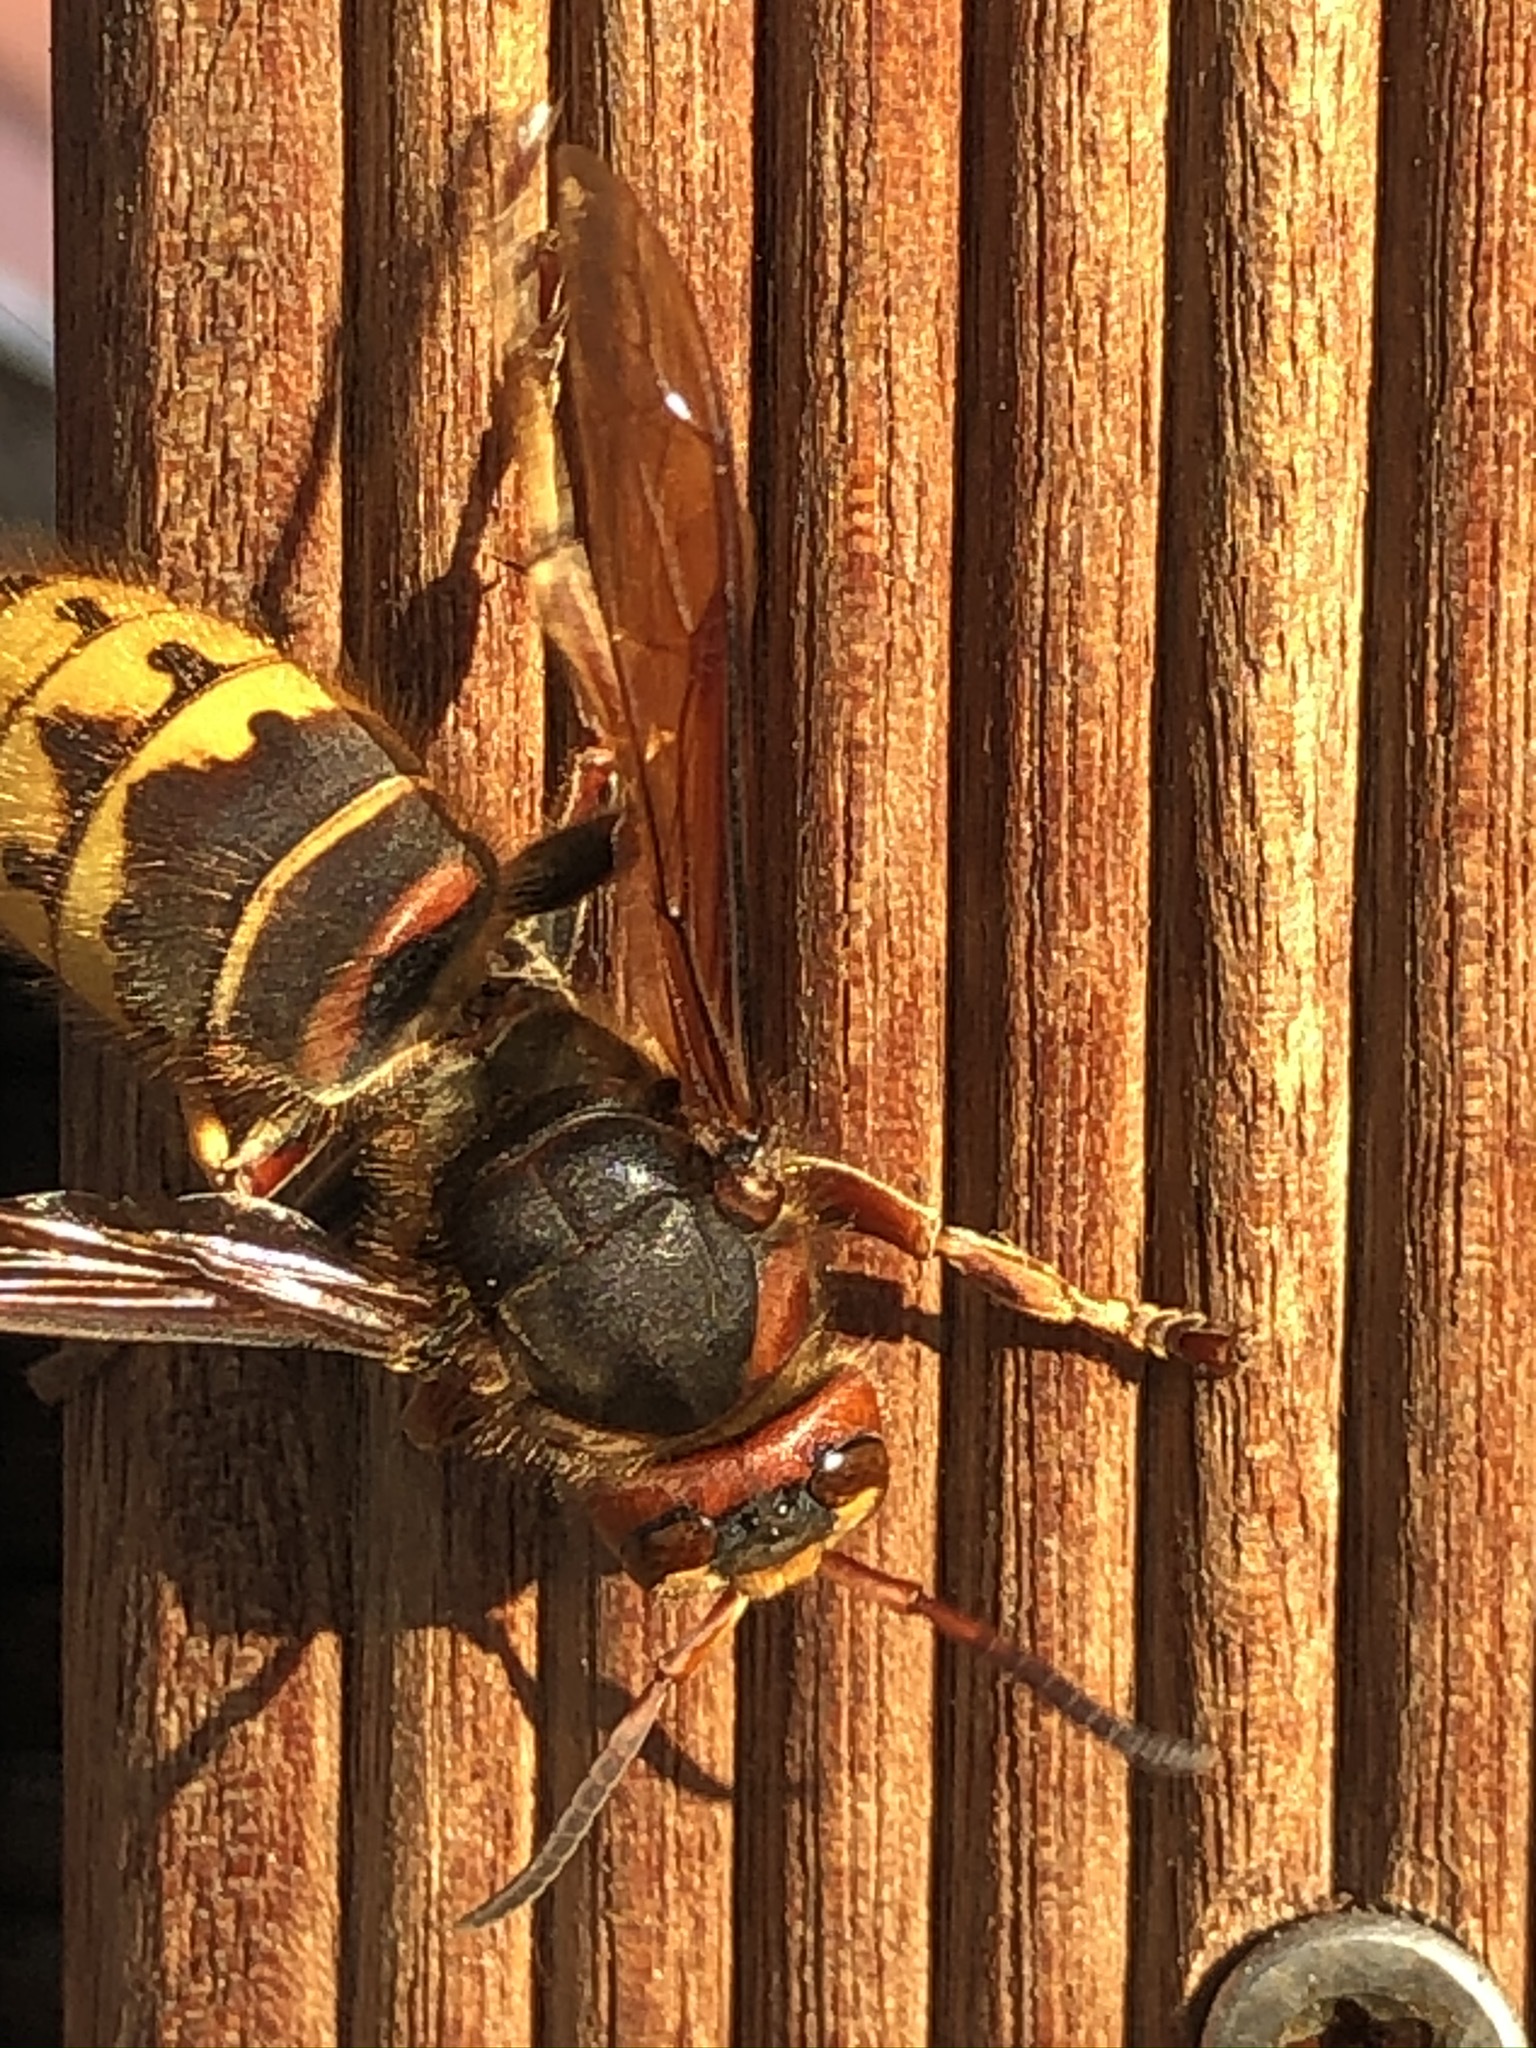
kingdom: Animalia
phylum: Arthropoda
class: Insecta
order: Hymenoptera
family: Vespidae
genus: Vespa
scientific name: Vespa crabro
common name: Hornet
